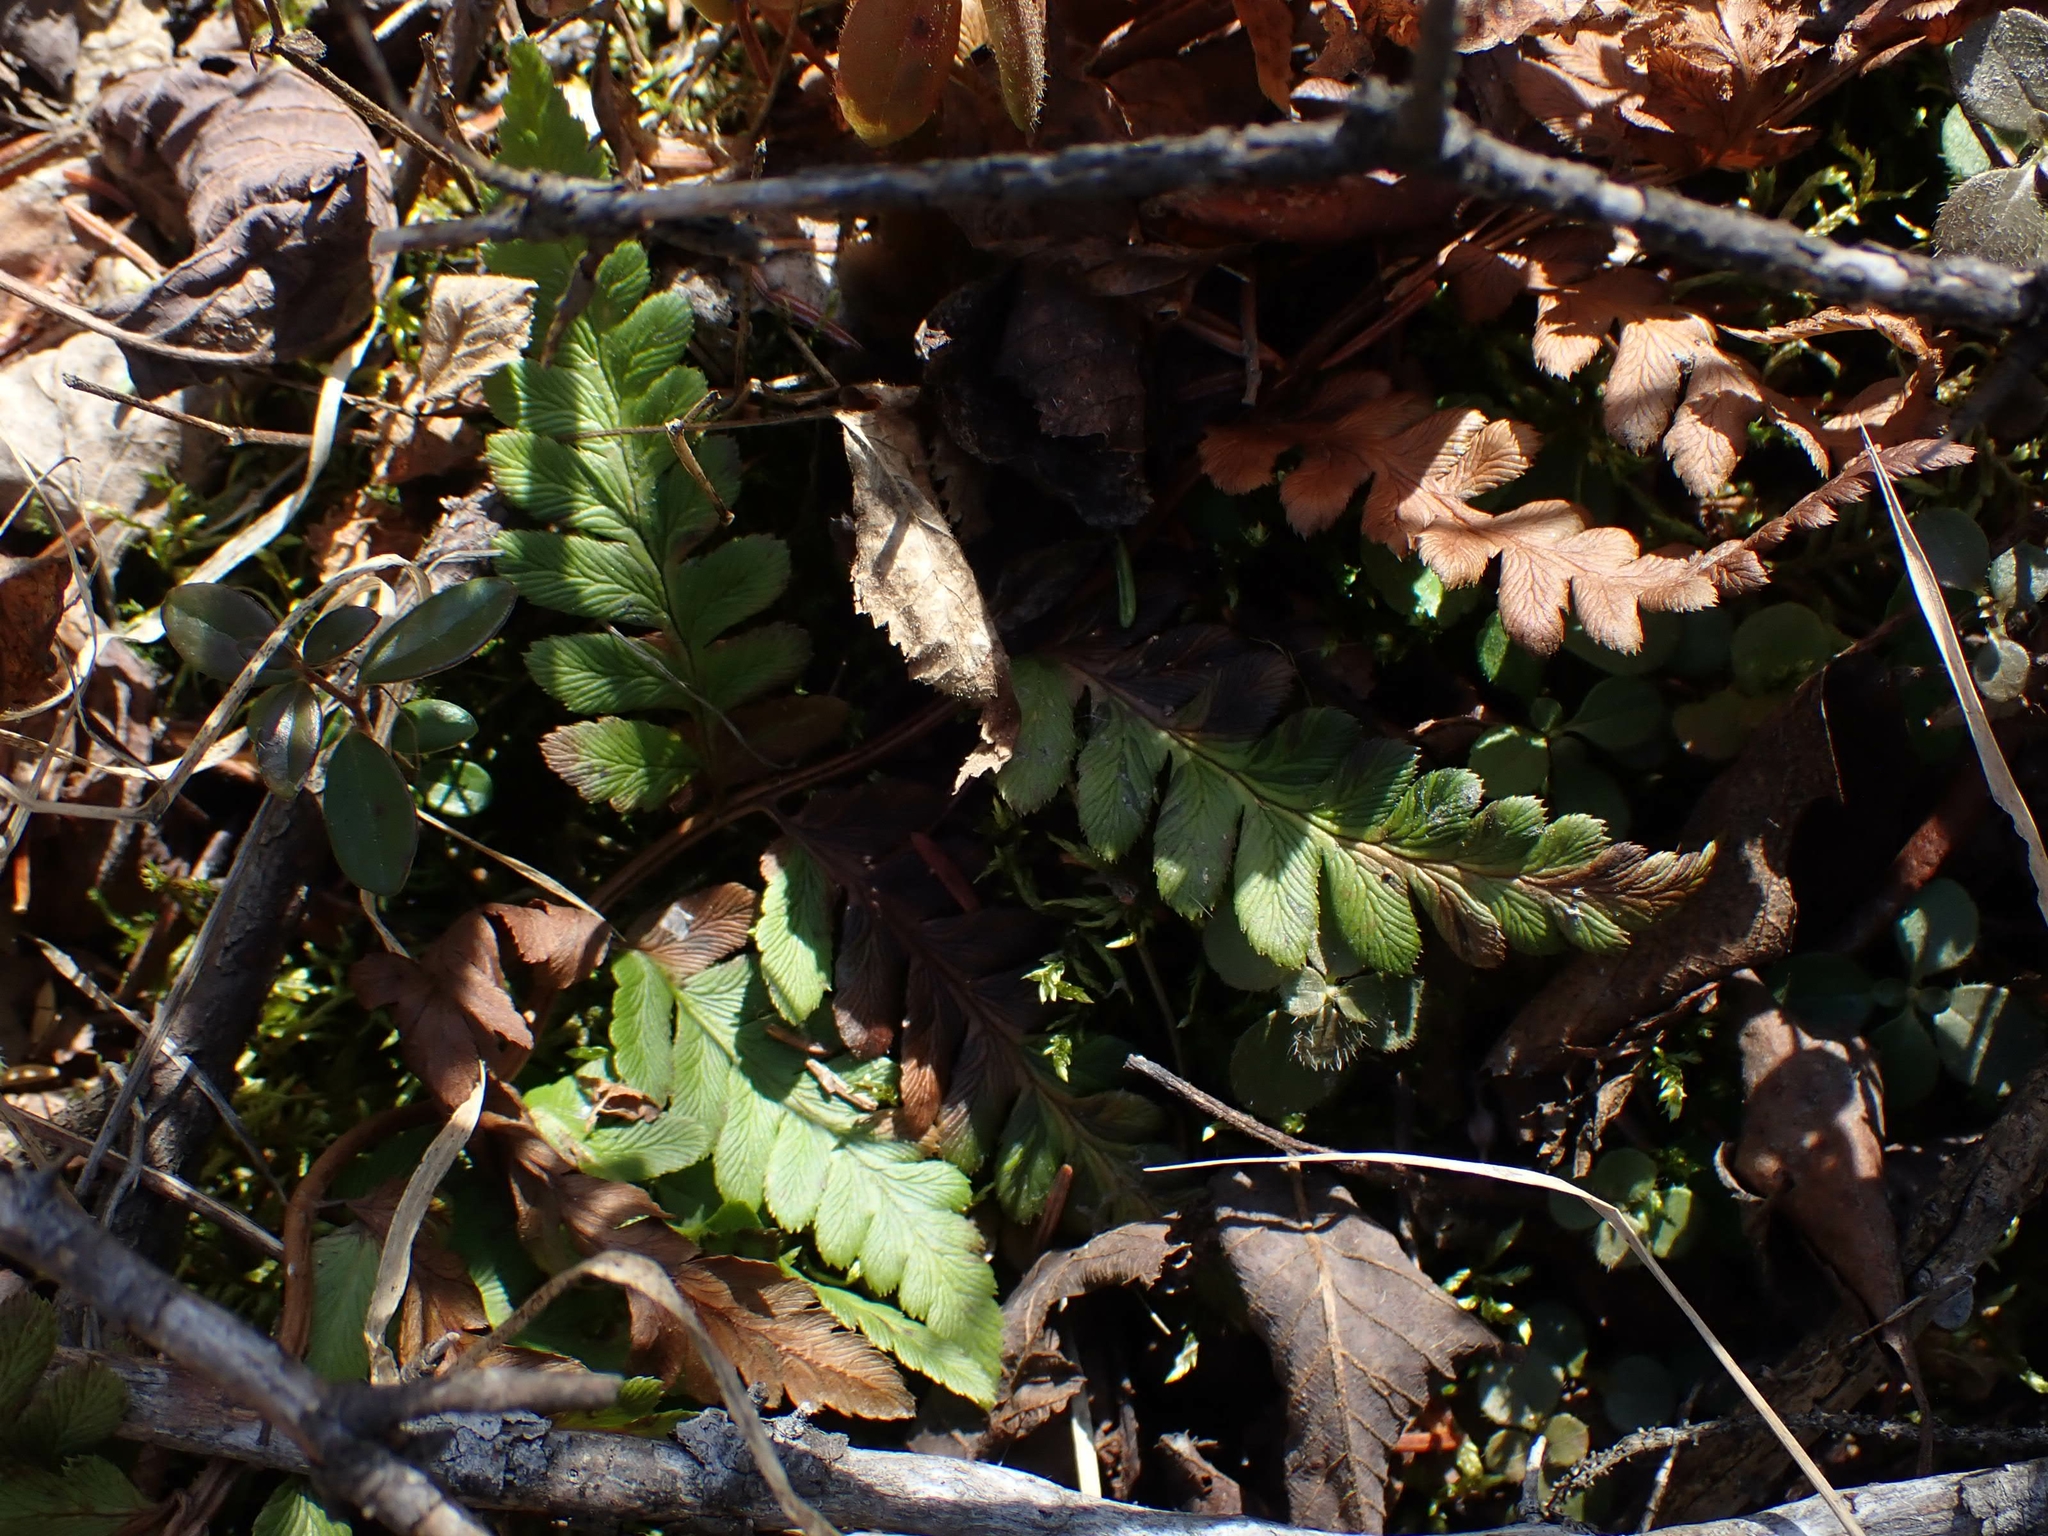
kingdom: Plantae
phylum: Tracheophyta
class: Polypodiopsida
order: Polypodiales
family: Dryopteridaceae
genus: Dryopteris
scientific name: Dryopteris cristata
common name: Crested wood fern
